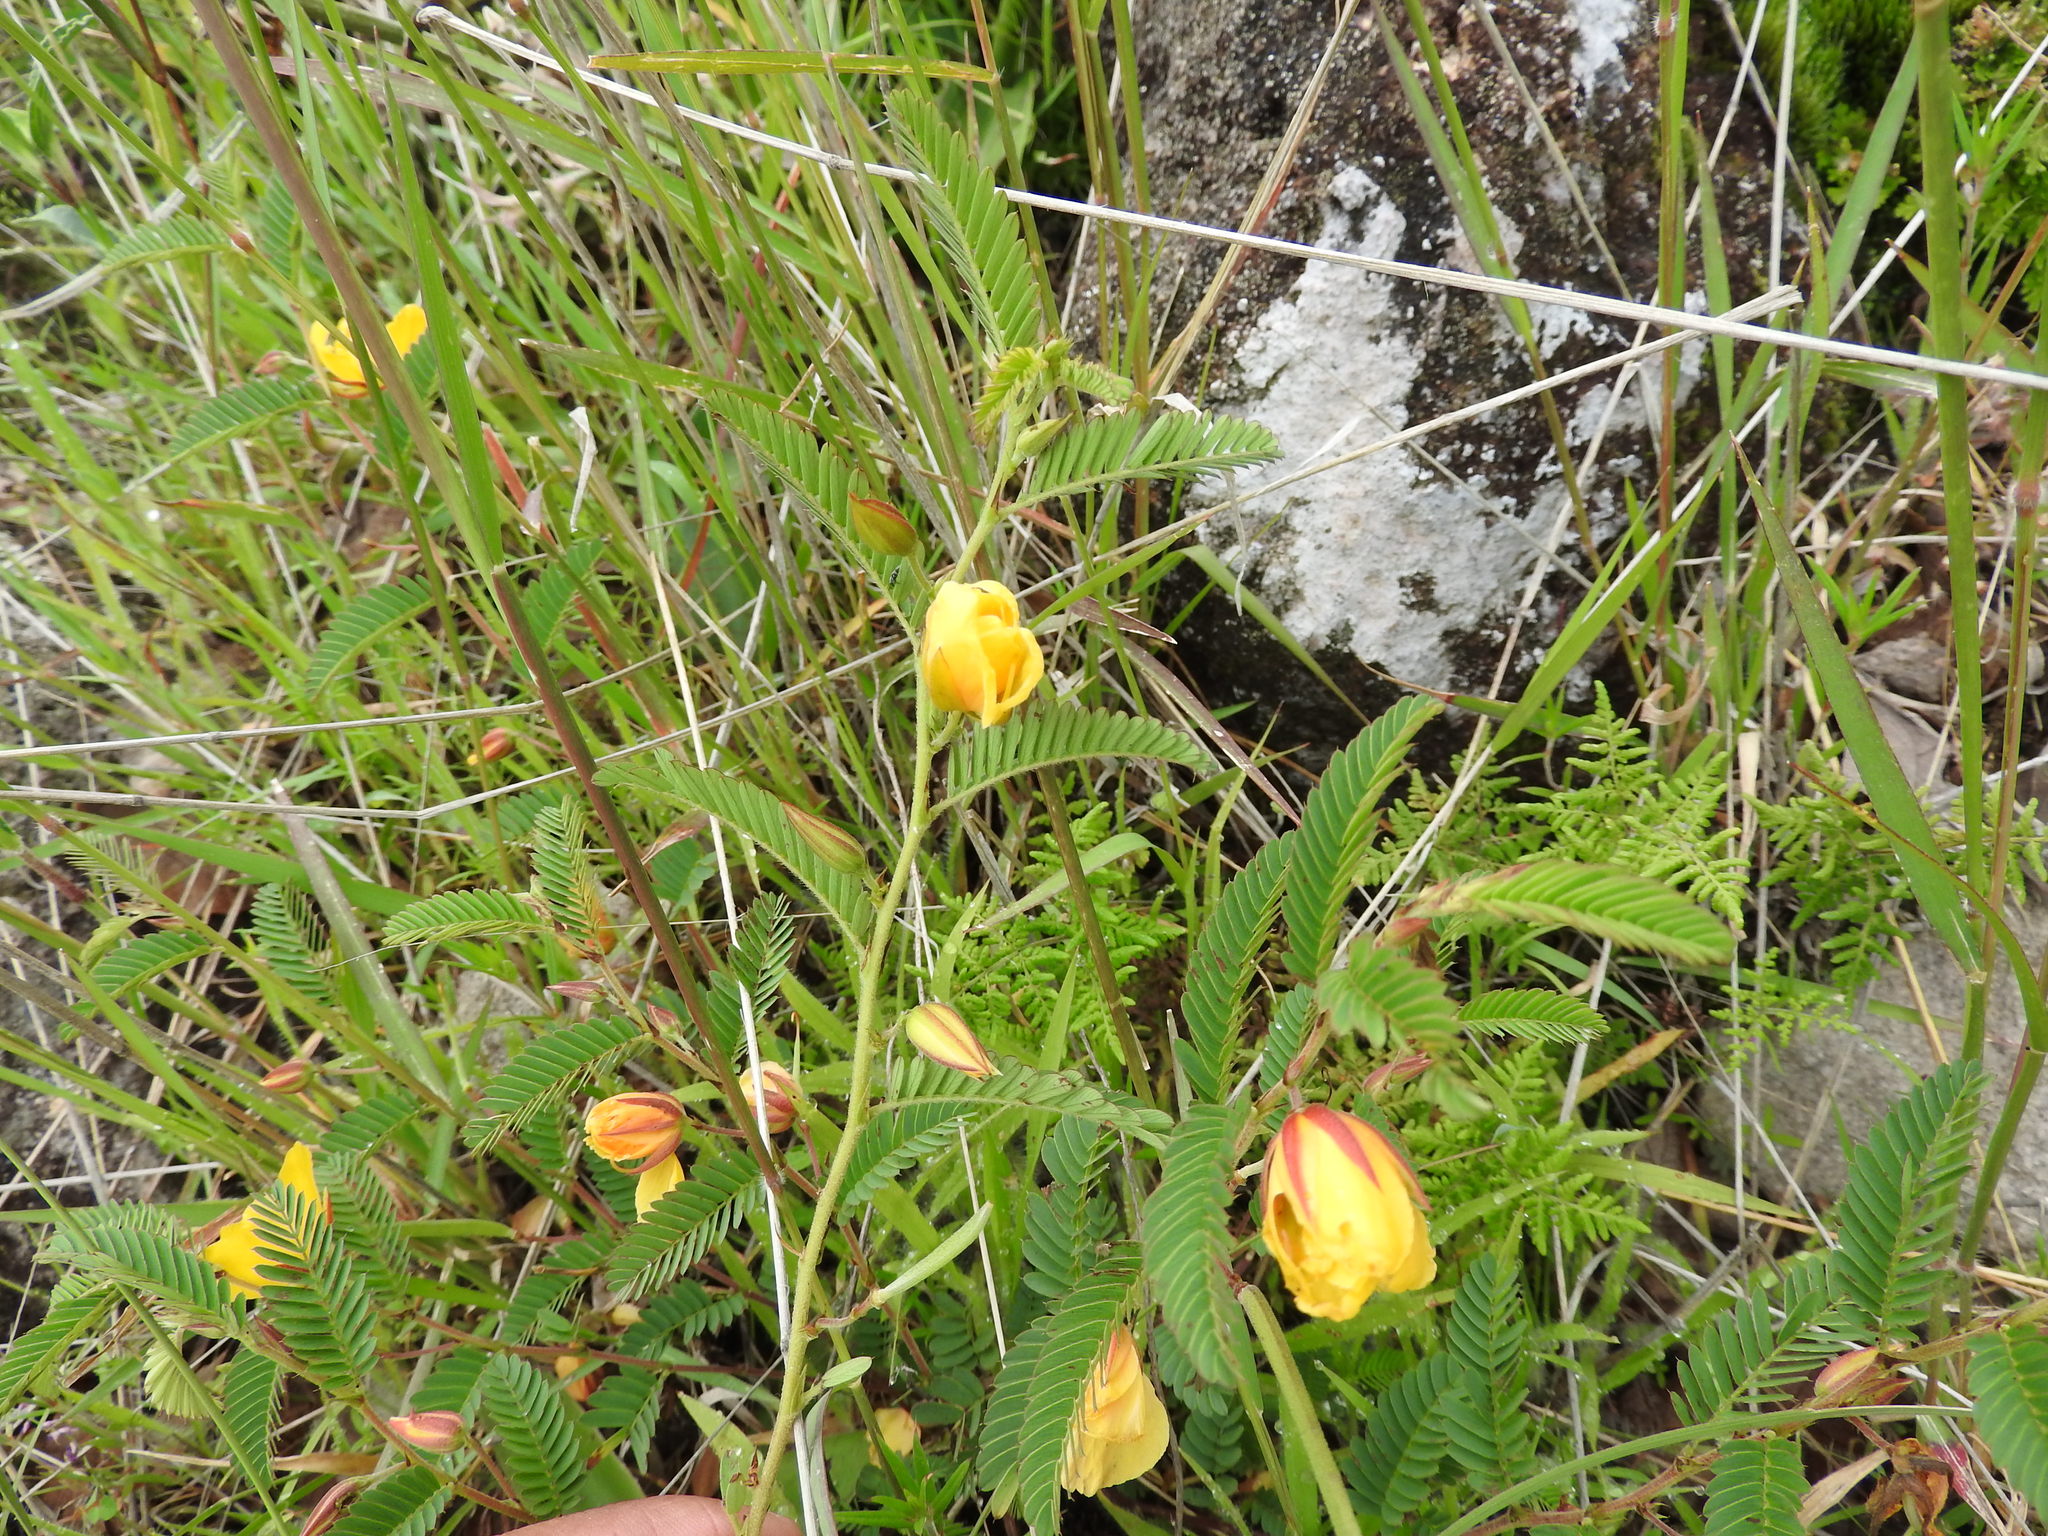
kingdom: Plantae
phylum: Tracheophyta
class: Magnoliopsida
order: Fabales
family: Fabaceae
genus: Chamaecrista
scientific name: Chamaecrista nictitans
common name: Sensitive cassia
